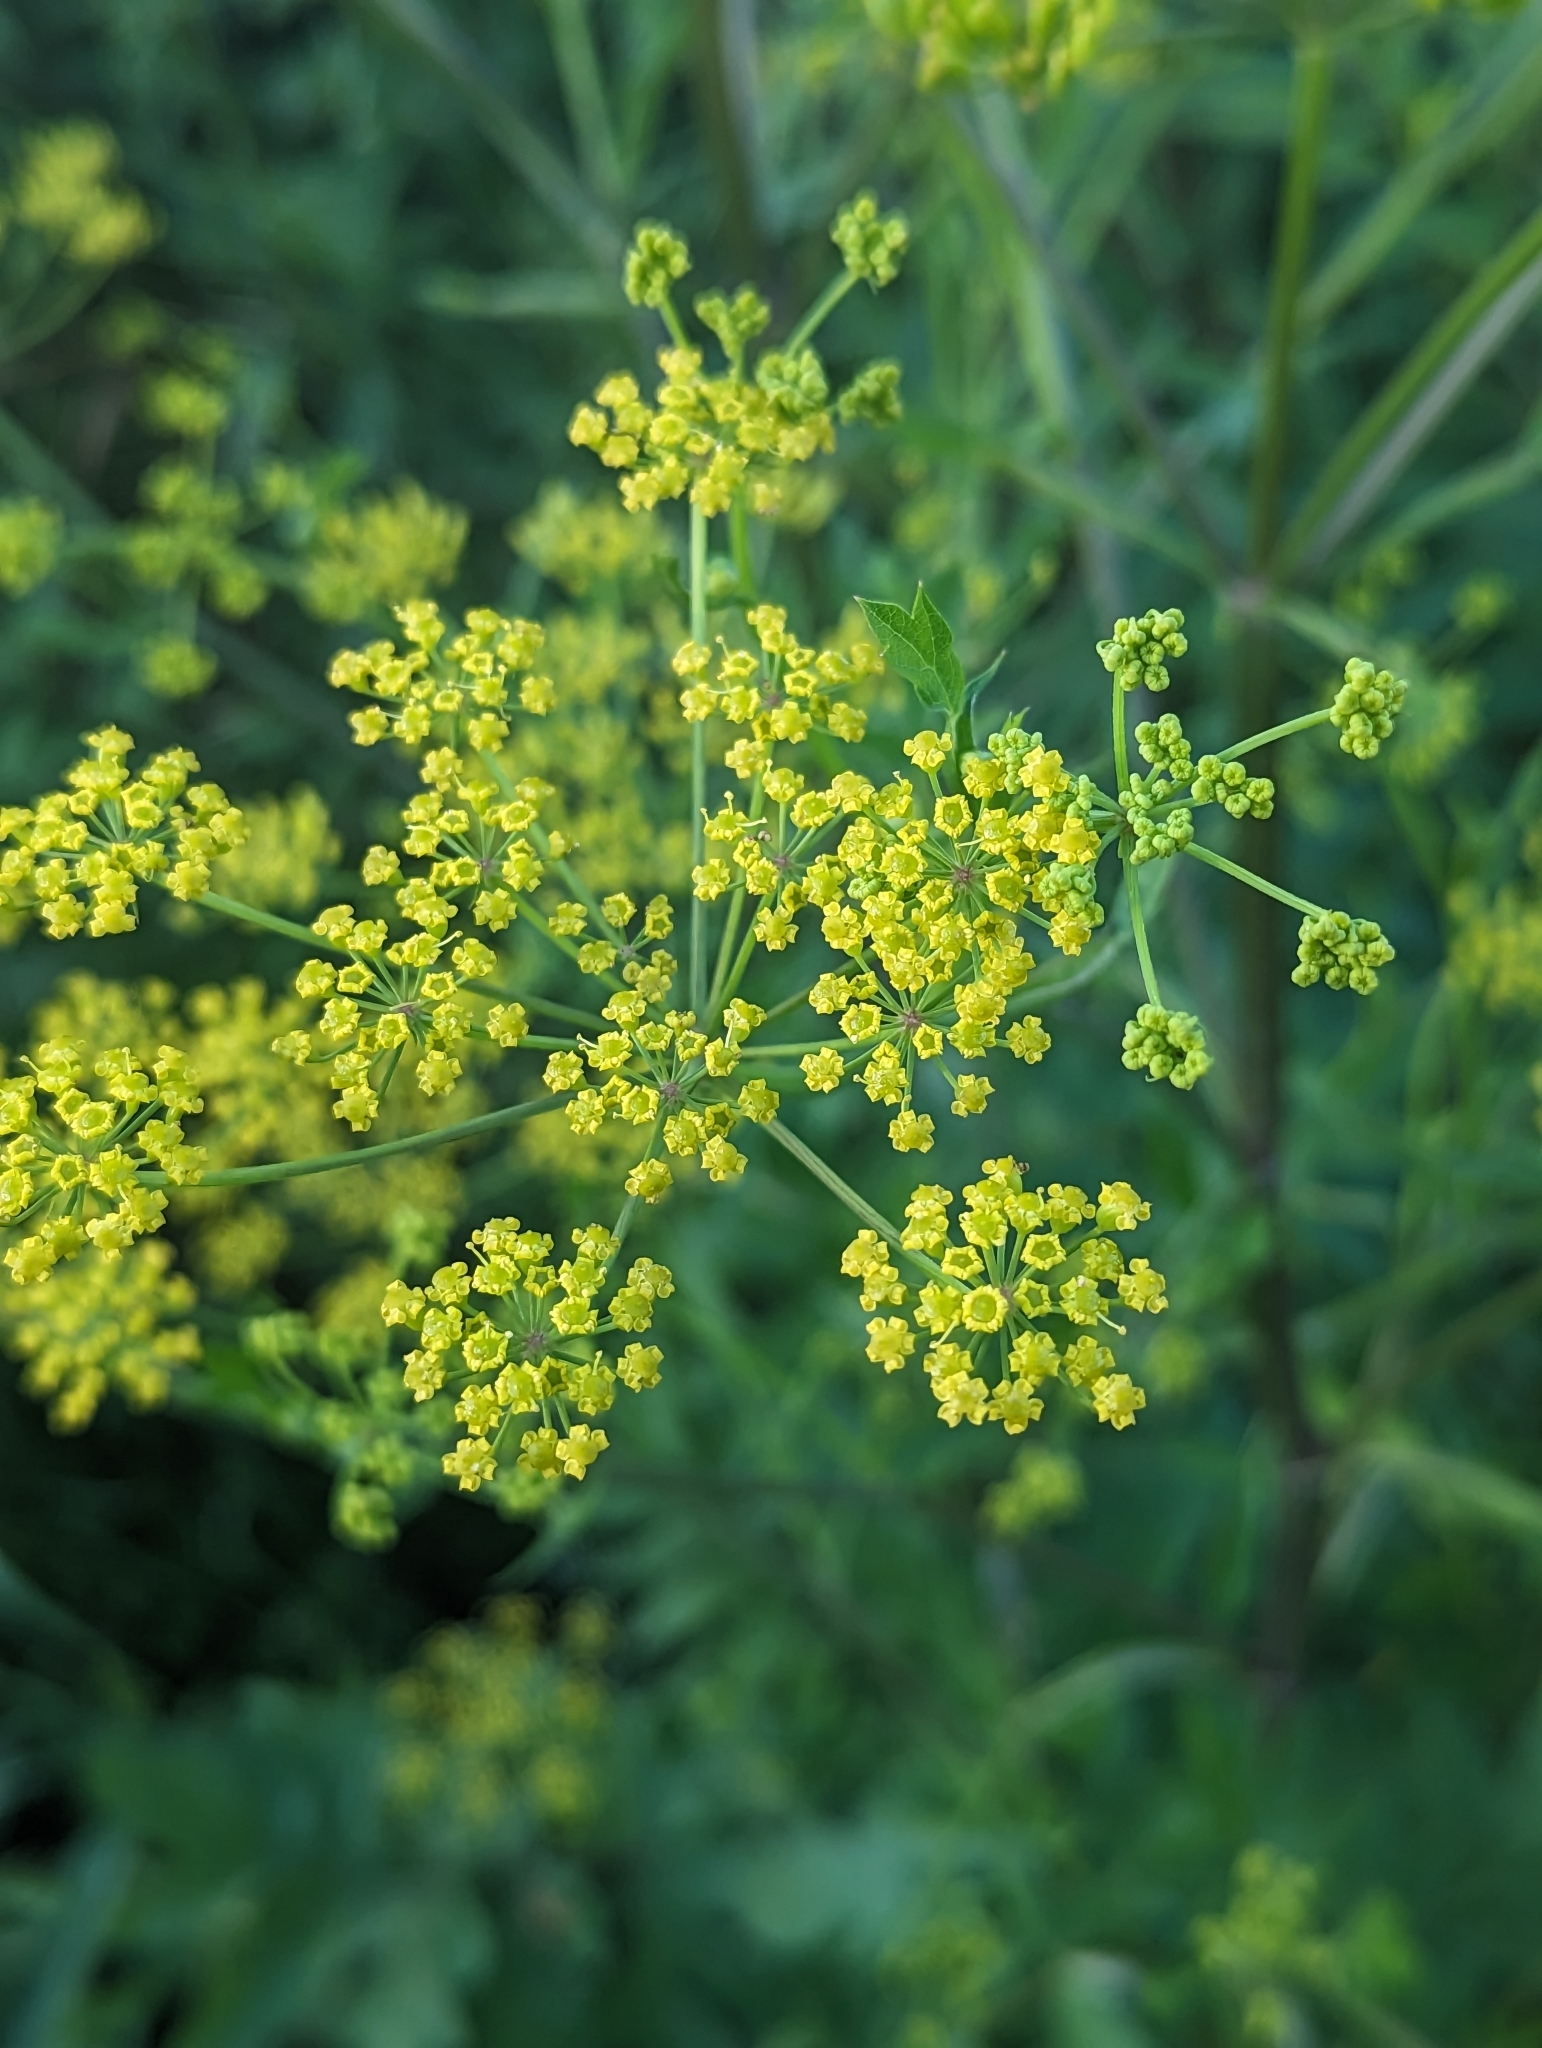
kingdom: Plantae
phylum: Tracheophyta
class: Magnoliopsida
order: Apiales
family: Apiaceae
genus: Pastinaca
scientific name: Pastinaca sativa
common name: Wild parsnip
